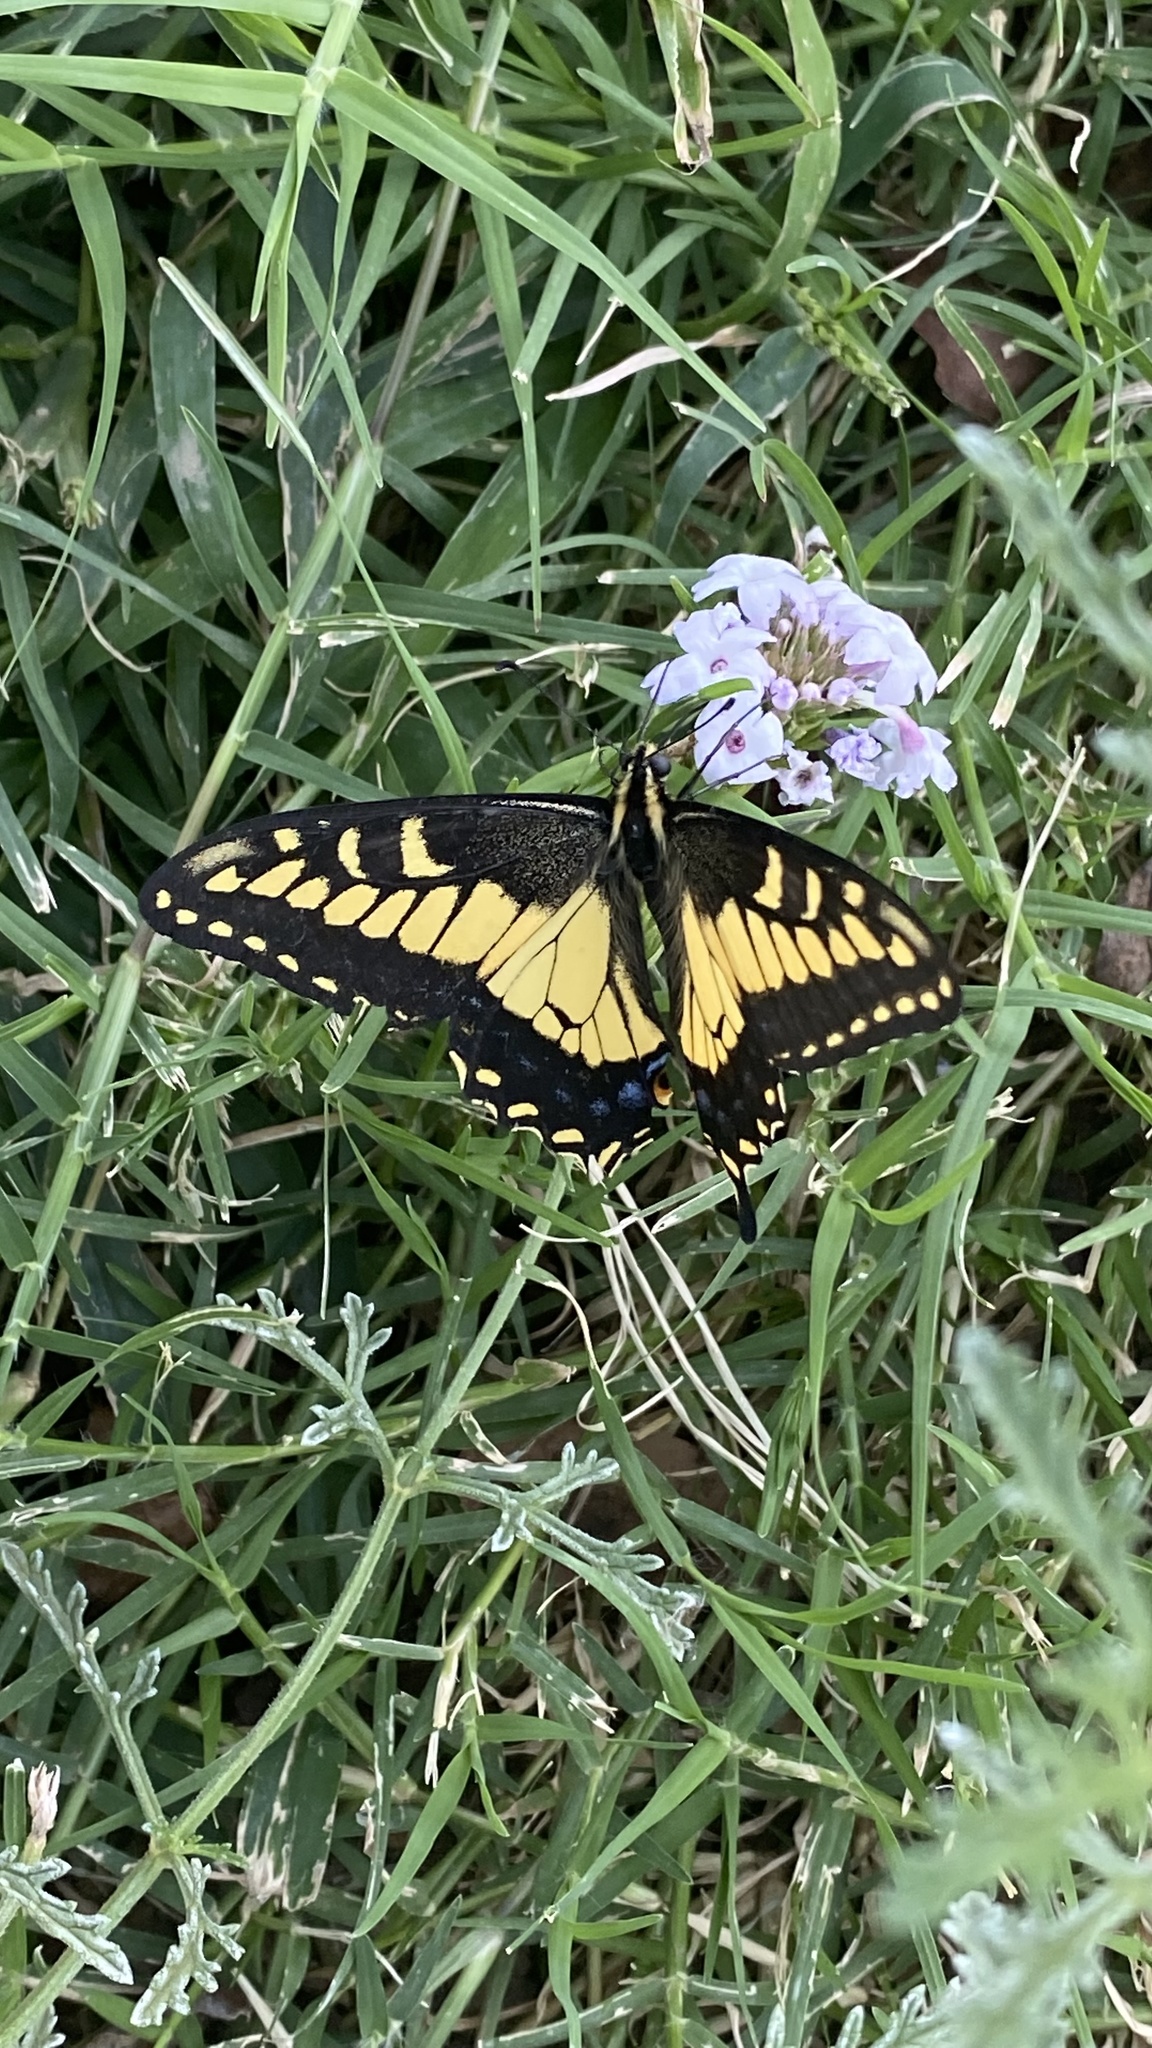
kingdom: Animalia
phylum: Arthropoda
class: Insecta
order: Lepidoptera
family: Papilionidae
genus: Papilio
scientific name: Papilio zelicaon
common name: Anise swallowtail
